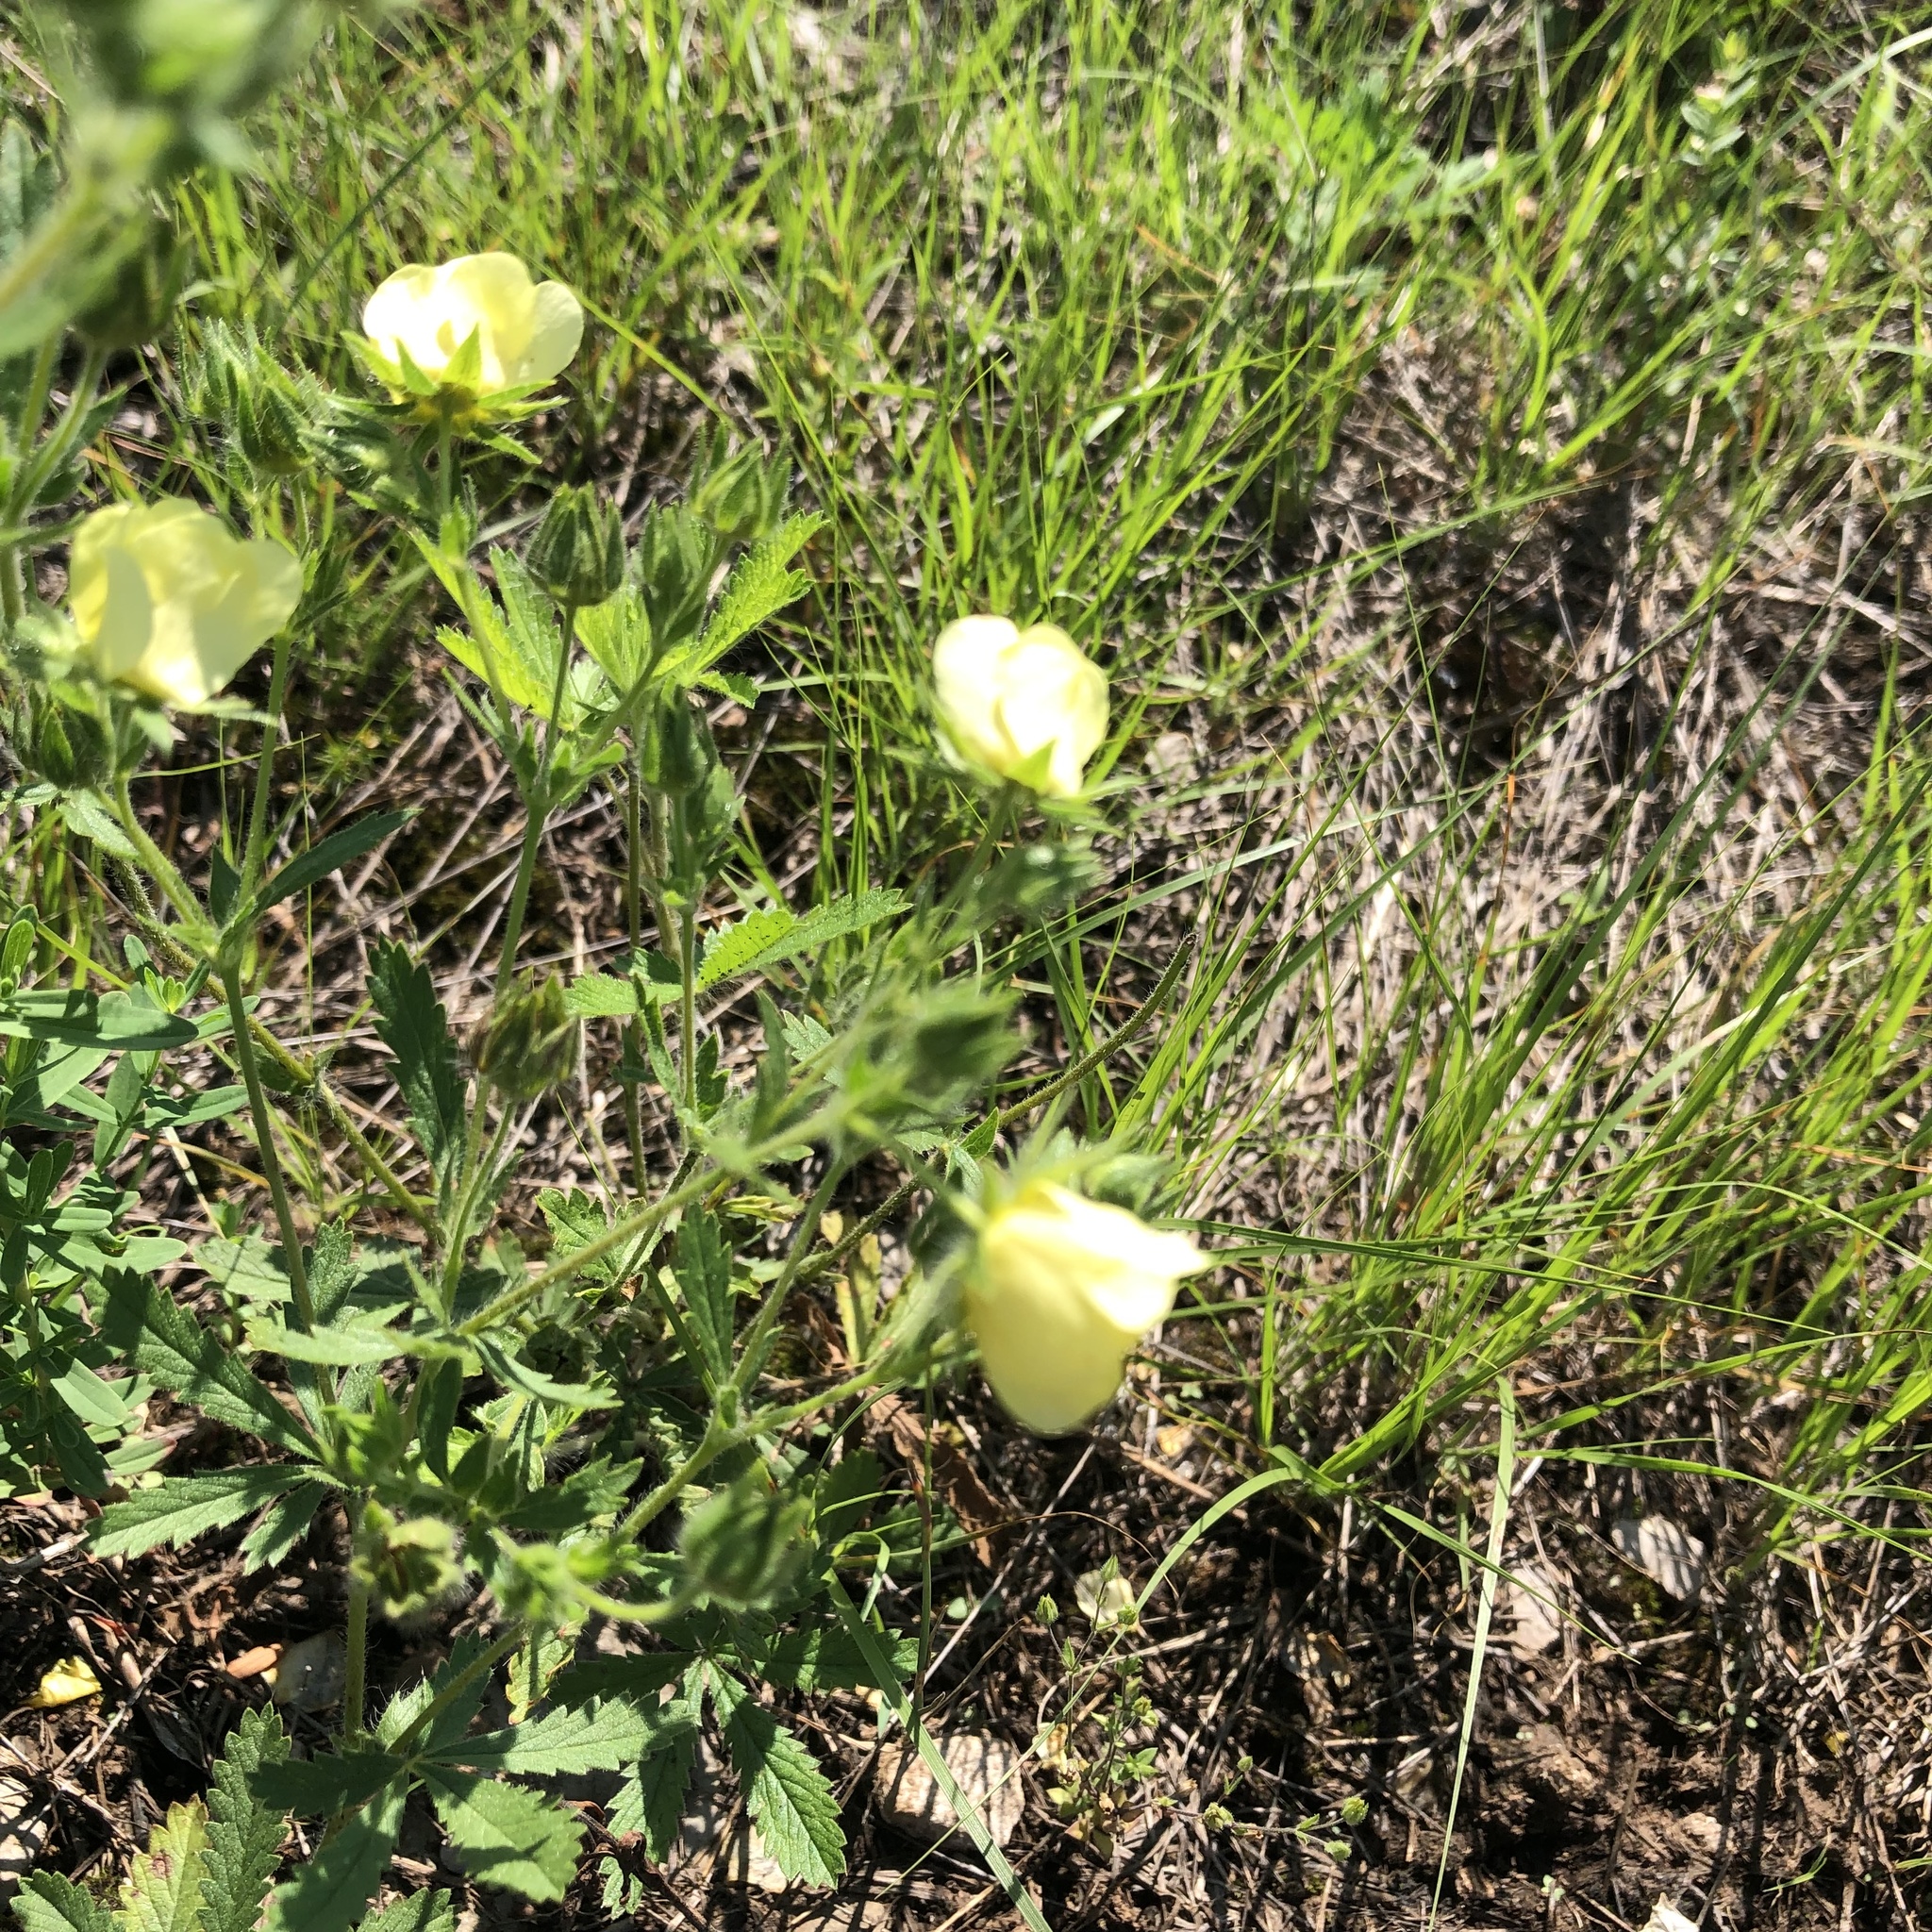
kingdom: Plantae
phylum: Tracheophyta
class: Magnoliopsida
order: Rosales
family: Rosaceae
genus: Potentilla
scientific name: Potentilla recta
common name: Sulphur cinquefoil
